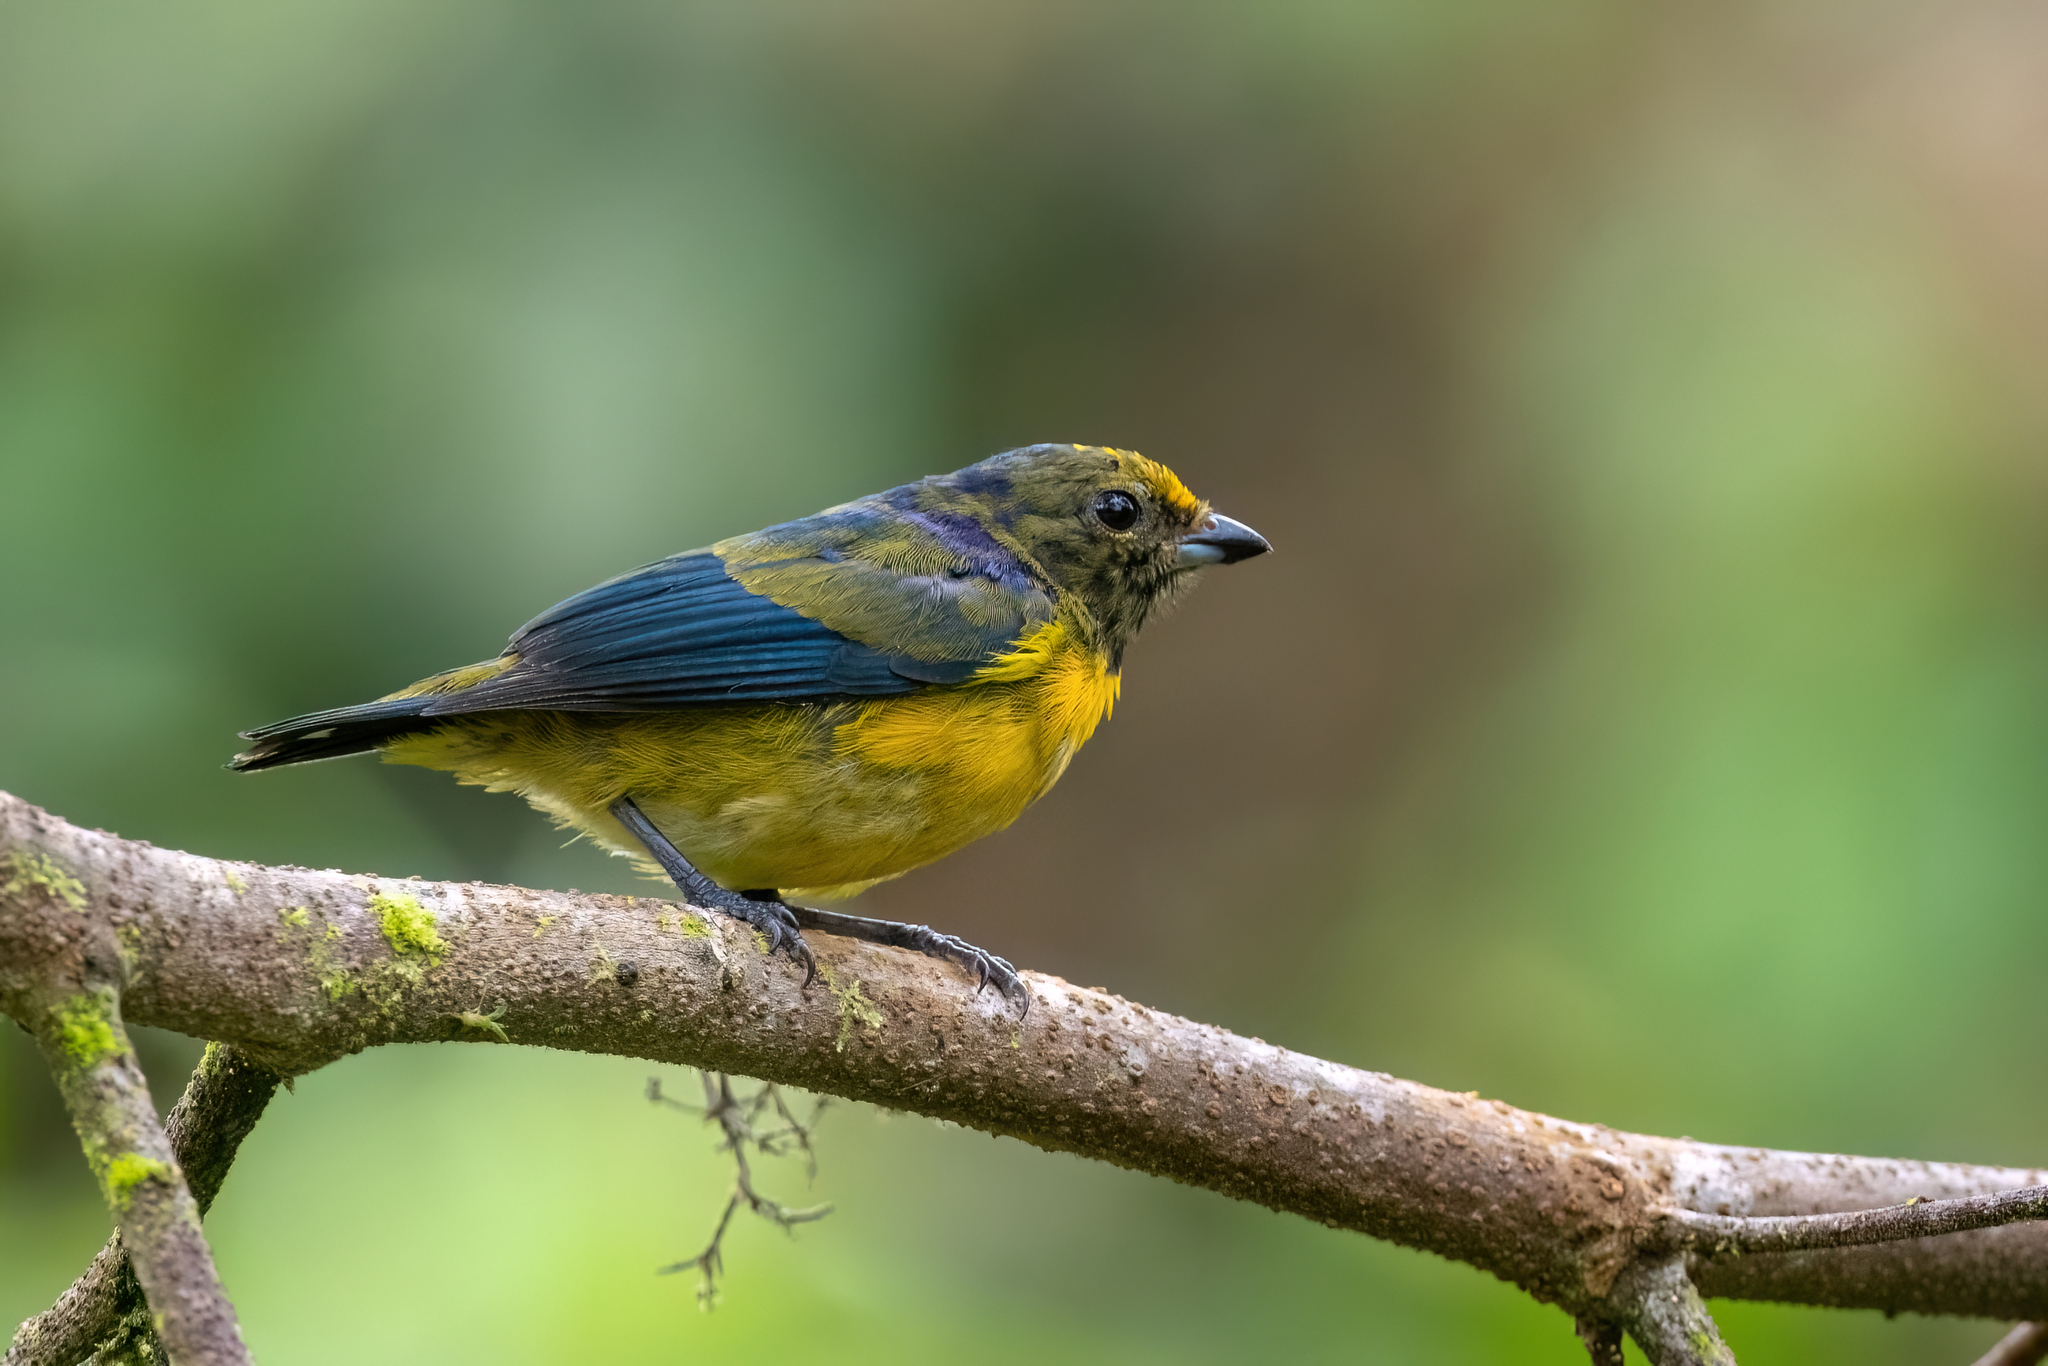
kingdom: Animalia
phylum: Chordata
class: Aves
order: Passeriformes
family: Fringillidae
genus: Euphonia
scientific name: Euphonia xanthogaster
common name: Orange-bellied euphonia
